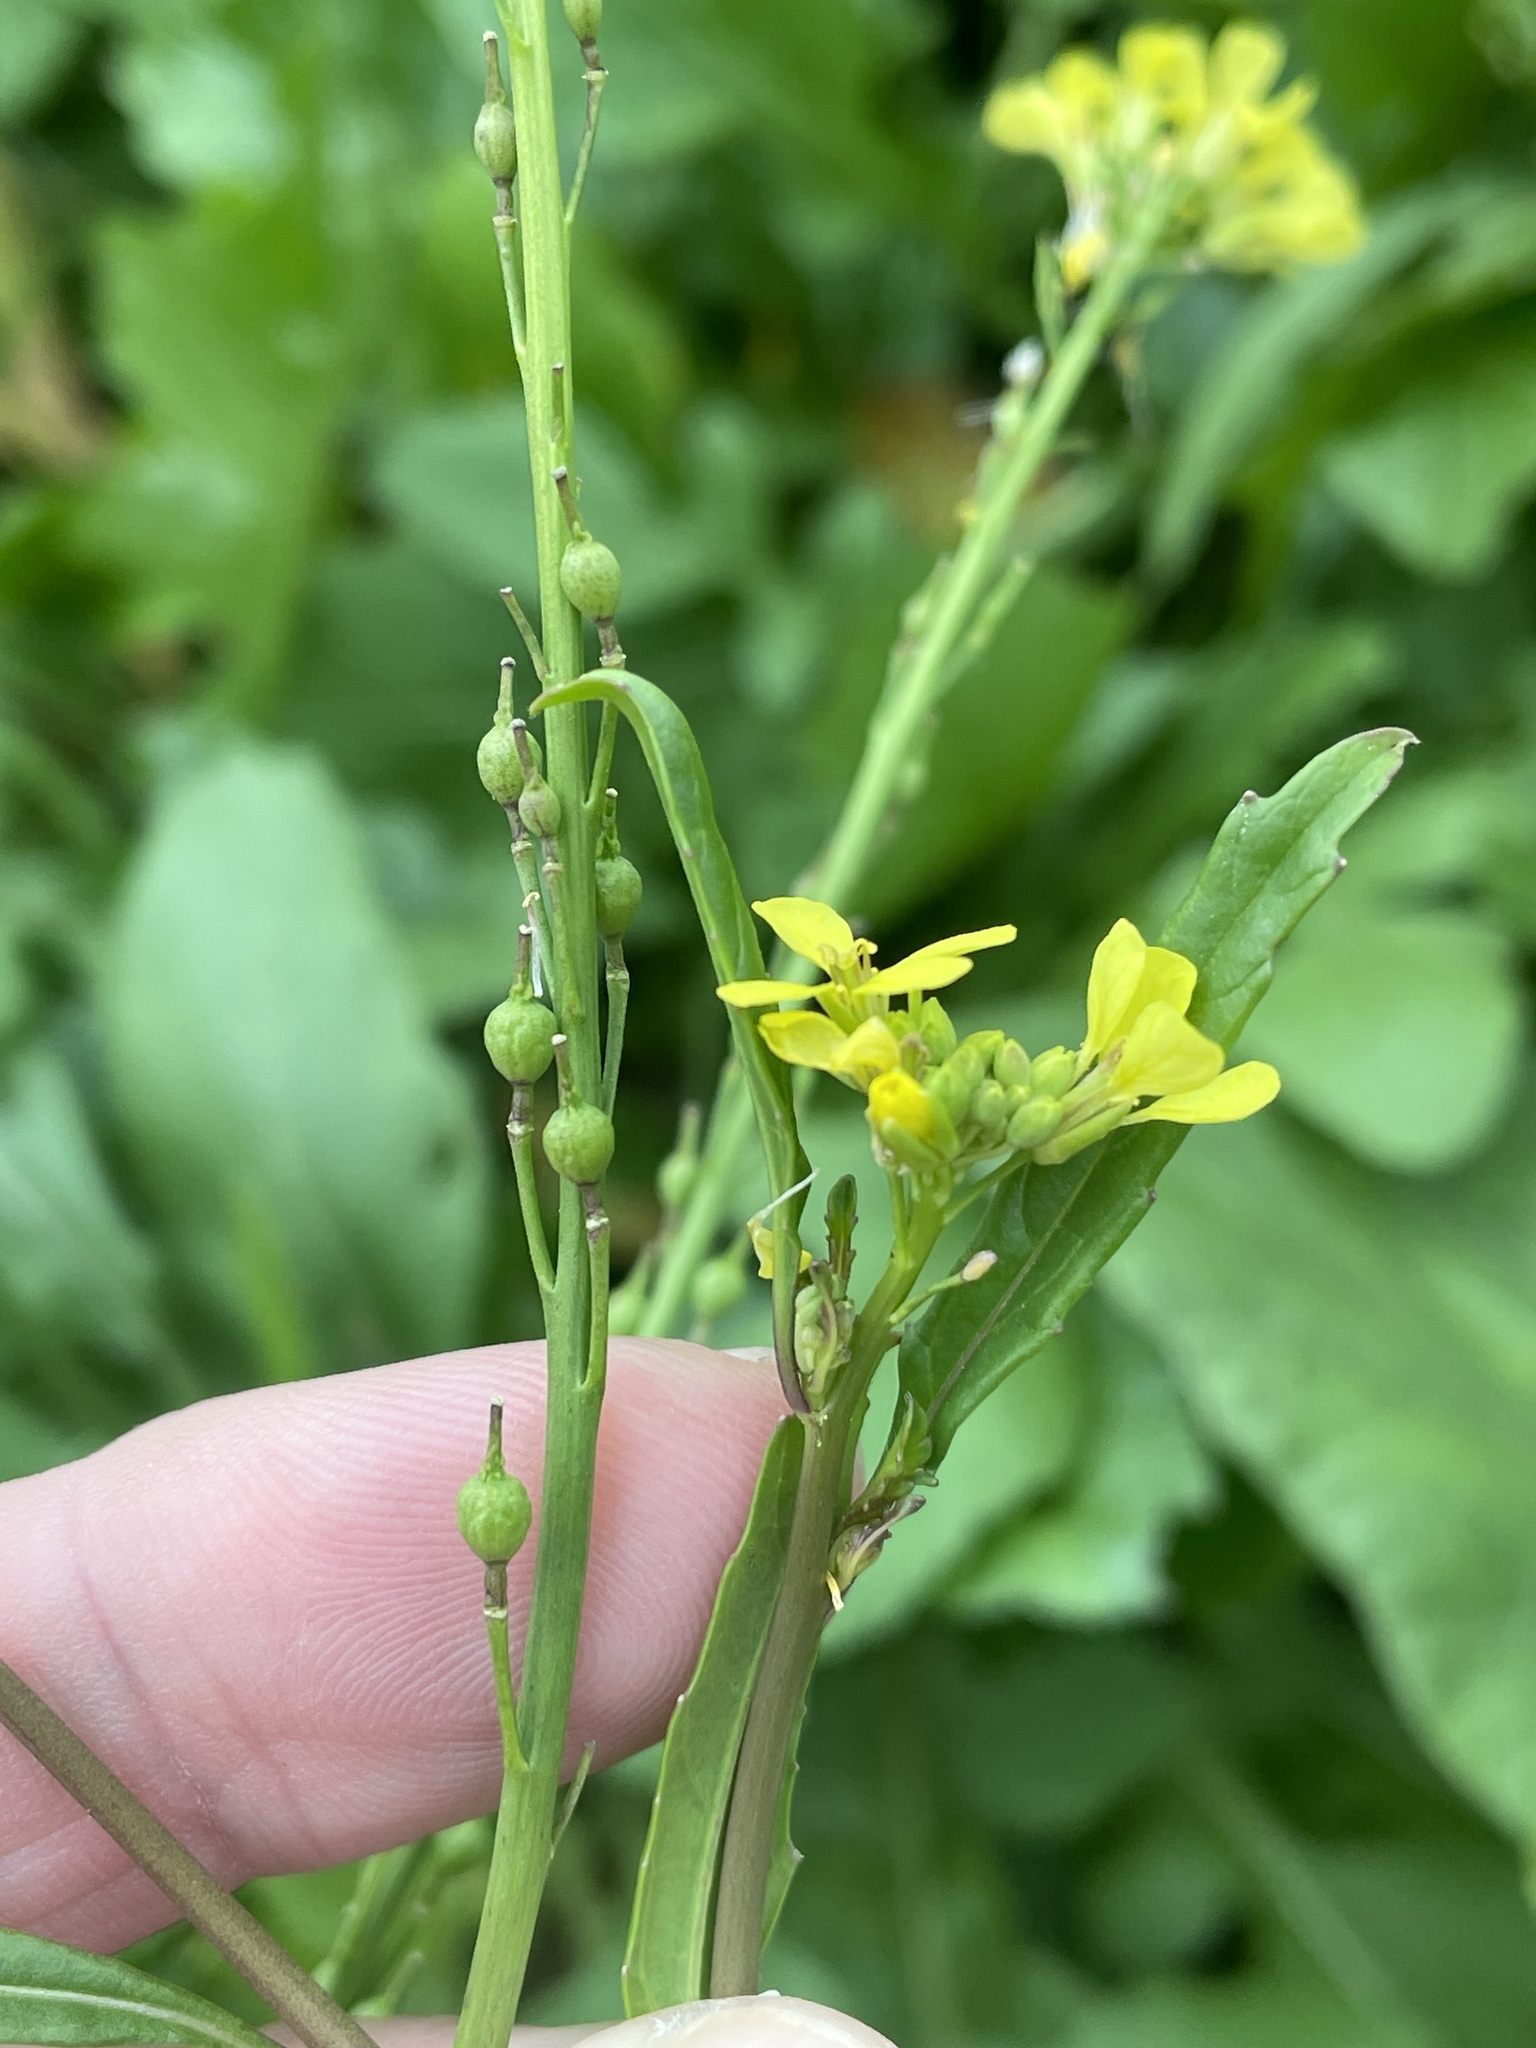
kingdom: Plantae
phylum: Tracheophyta
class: Magnoliopsida
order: Brassicales
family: Brassicaceae
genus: Rapistrum
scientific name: Rapistrum rugosum
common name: Annual bastardcabbage
